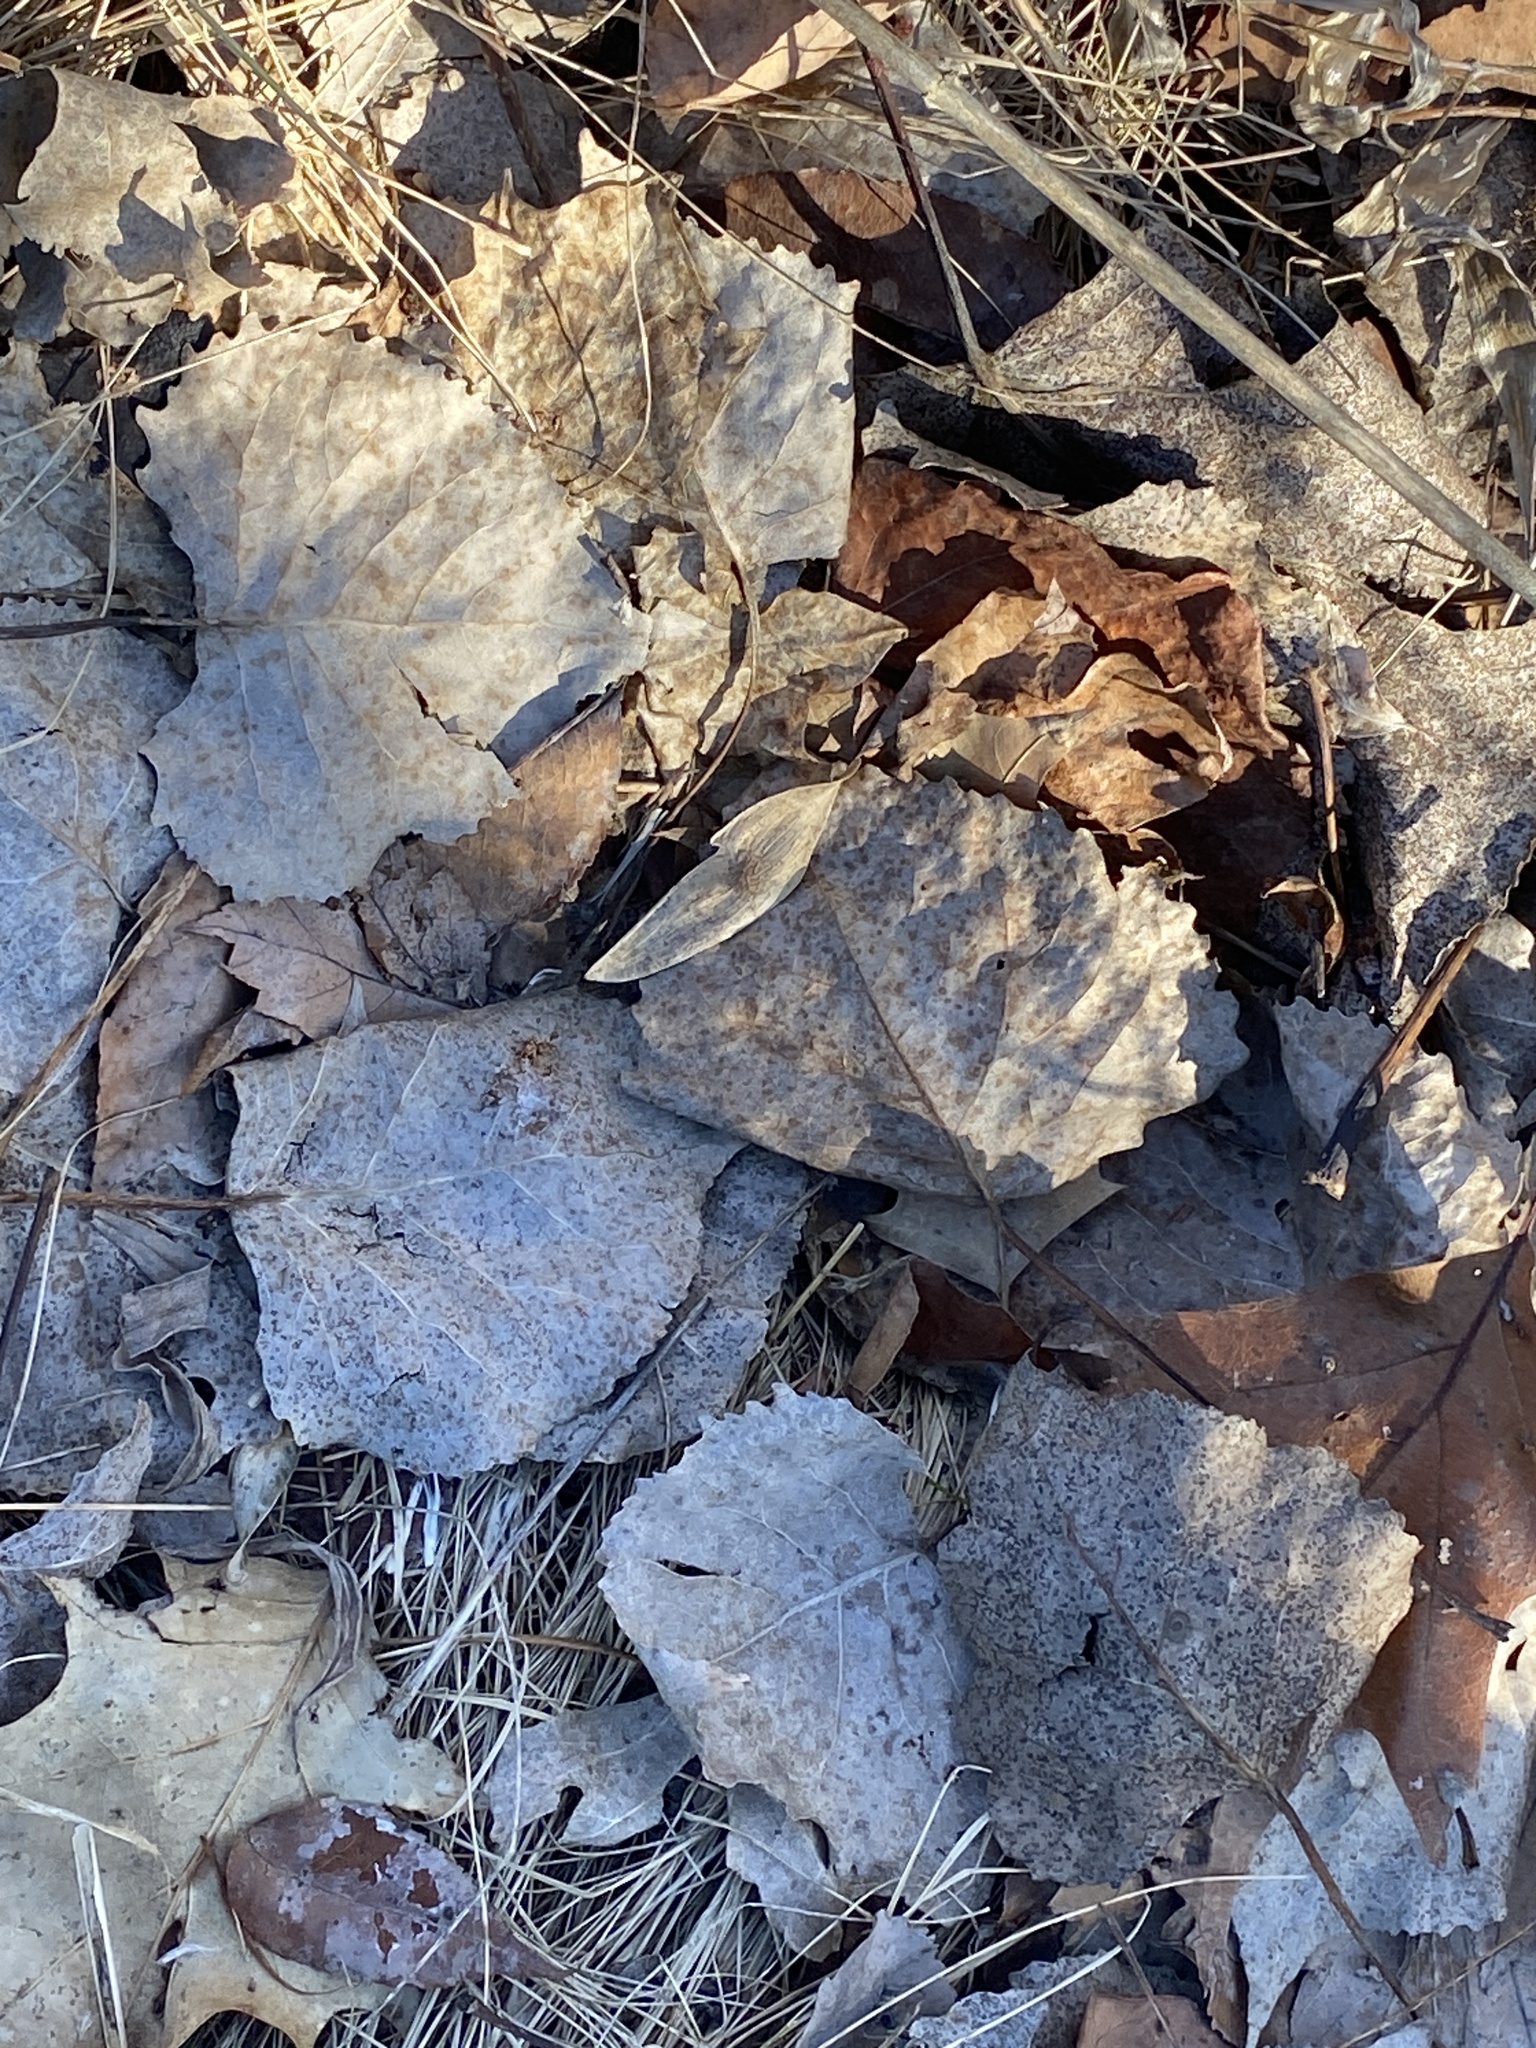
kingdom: Plantae
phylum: Tracheophyta
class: Magnoliopsida
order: Malpighiales
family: Salicaceae
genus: Populus
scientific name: Populus deltoides
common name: Eastern cottonwood
